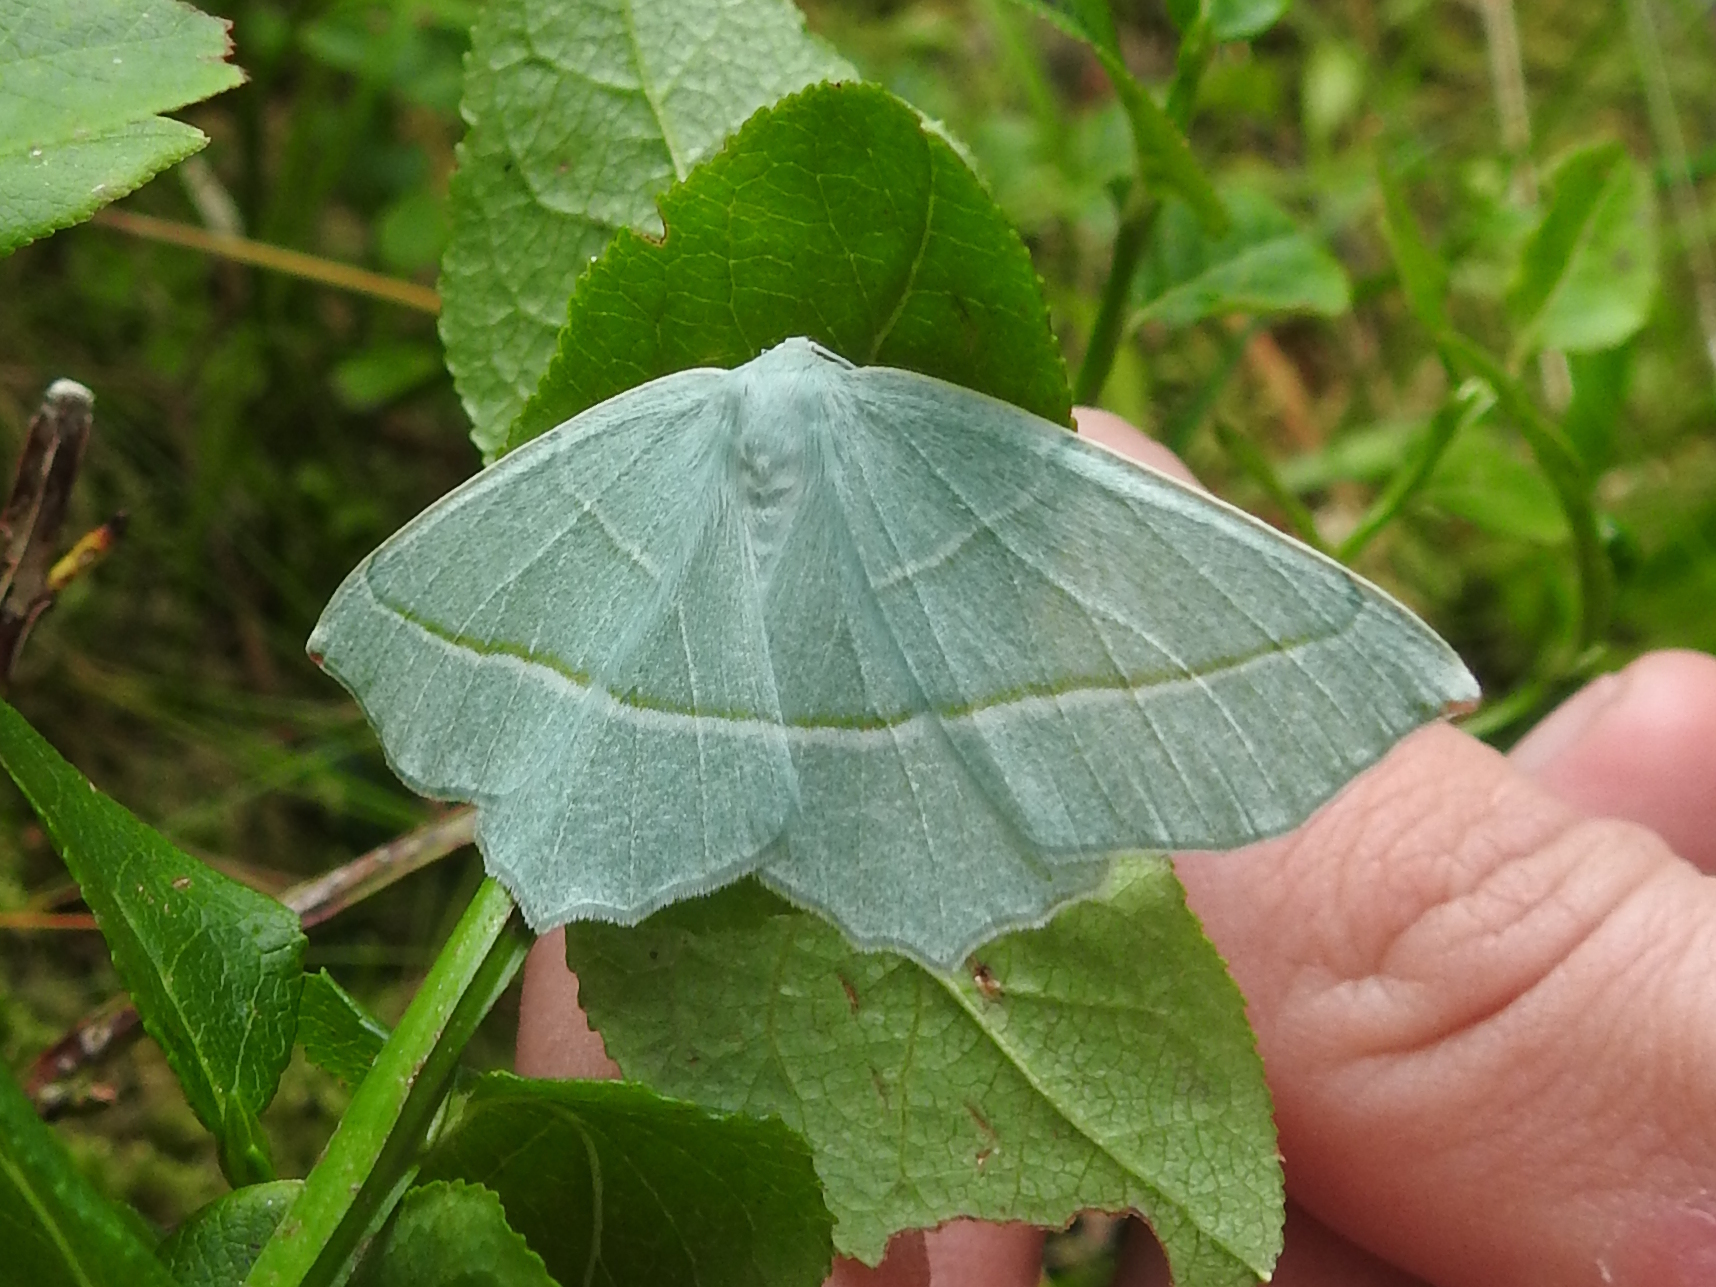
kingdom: Animalia
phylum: Arthropoda
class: Insecta
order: Lepidoptera
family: Geometridae
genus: Campaea
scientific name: Campaea margaritaria
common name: Light emerald
